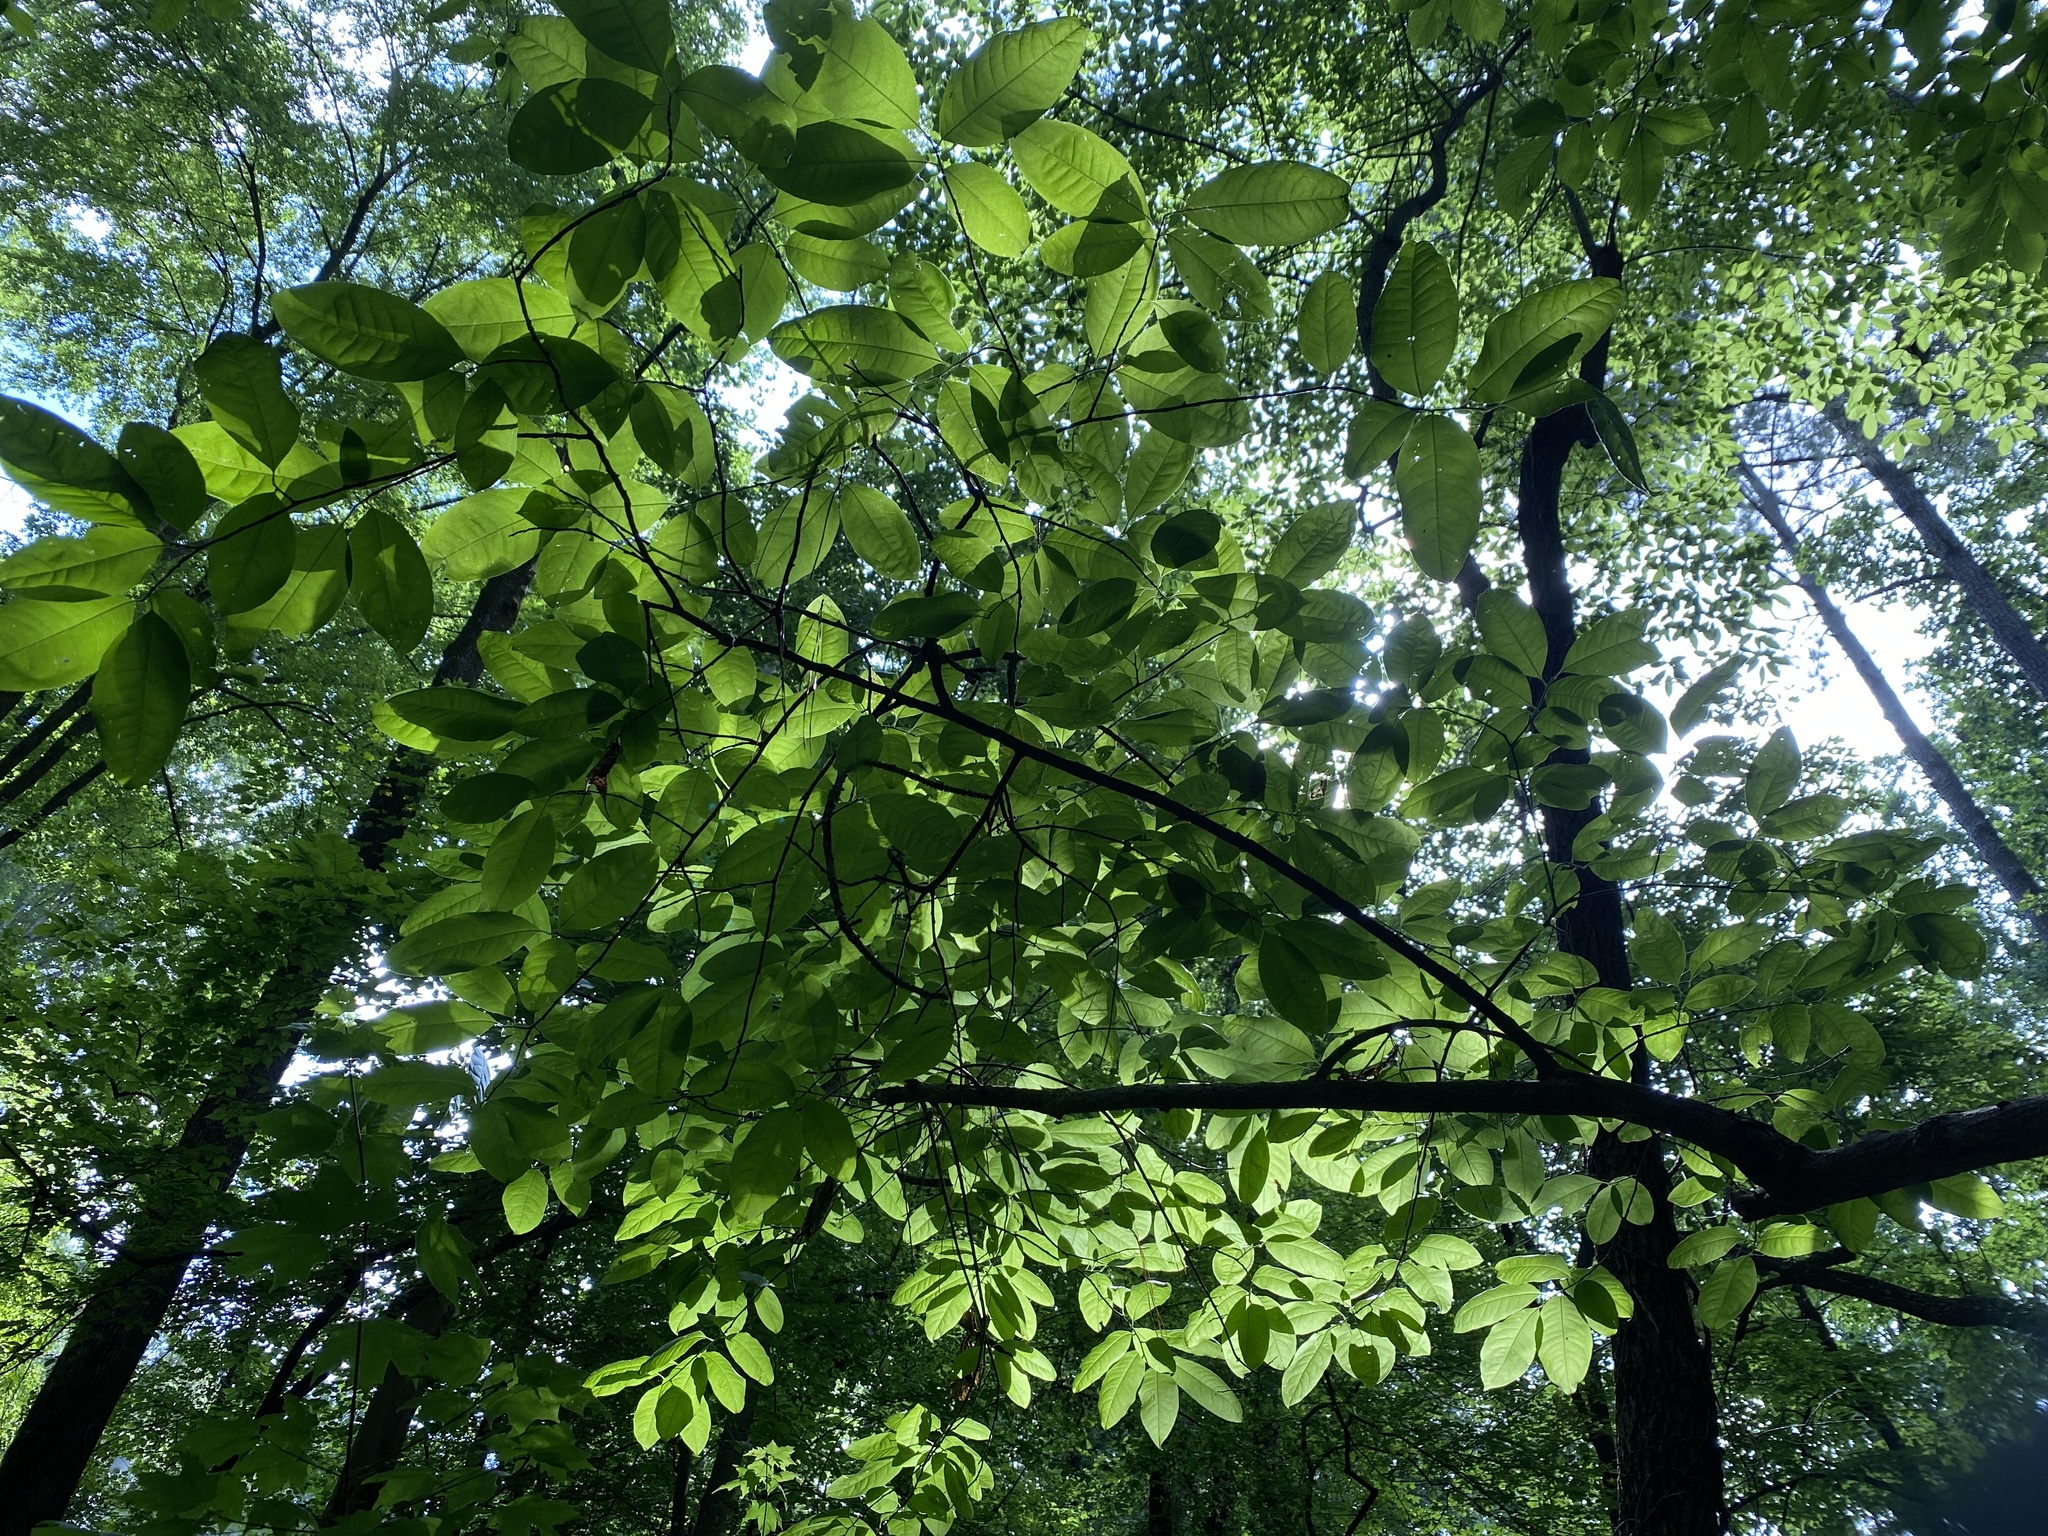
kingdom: Plantae
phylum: Tracheophyta
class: Magnoliopsida
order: Ericales
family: Ericaceae
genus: Oxydendrum
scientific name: Oxydendrum arboreum
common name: Sourwood
